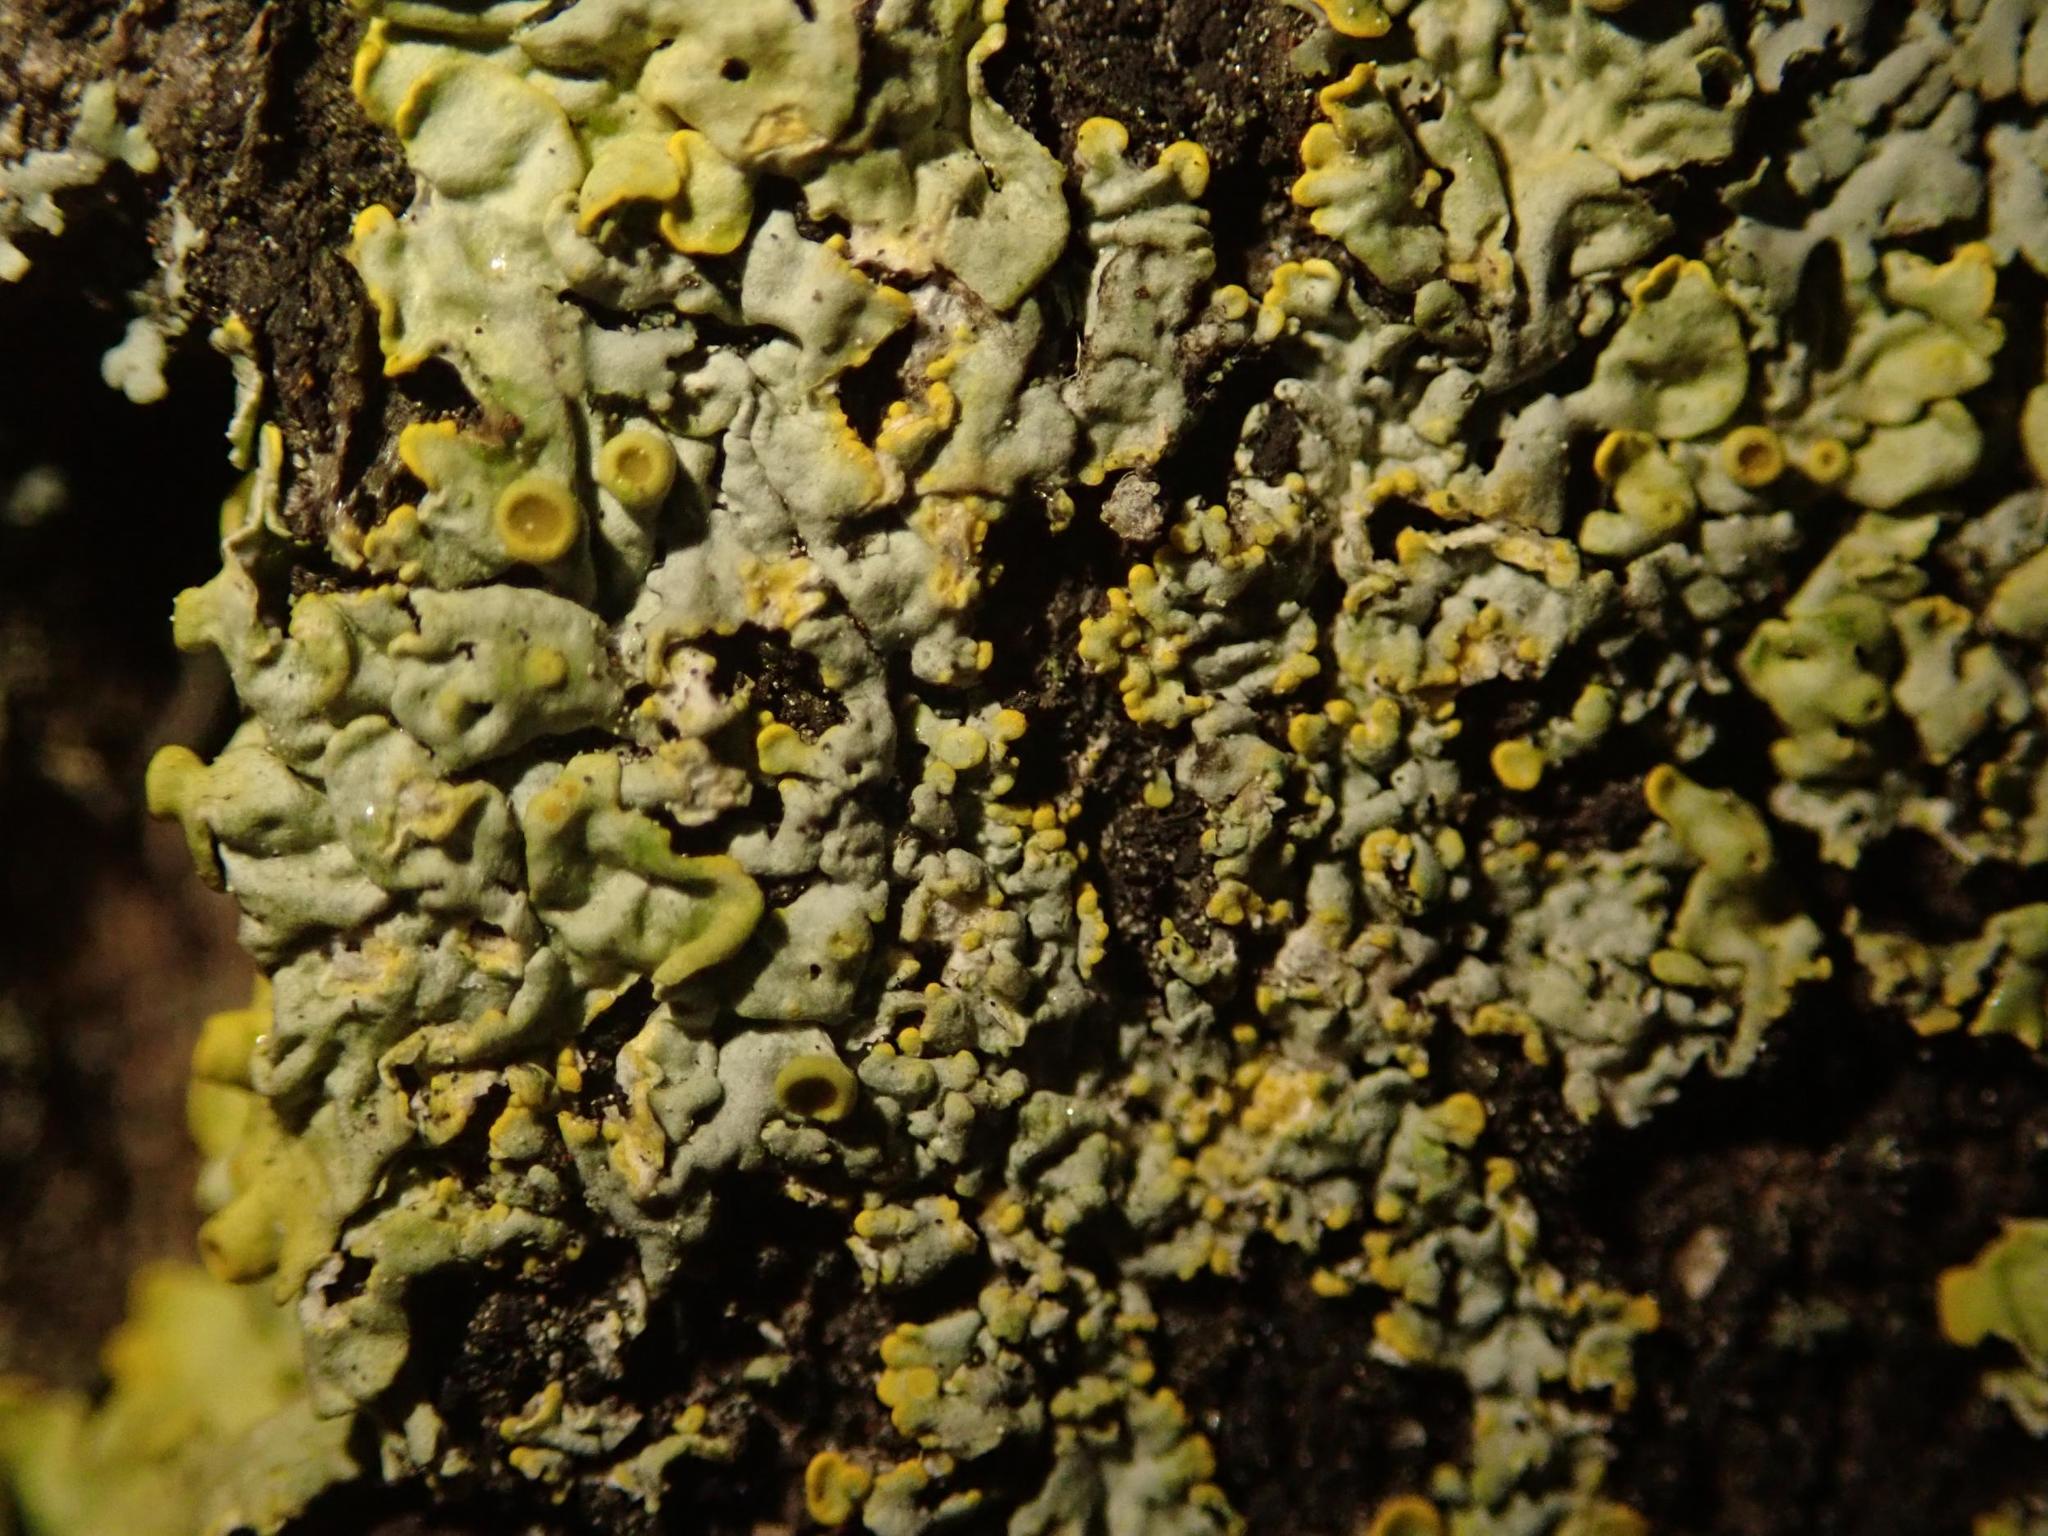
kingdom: Fungi
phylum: Ascomycota
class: Lecanoromycetes
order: Teloschistales
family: Teloschistaceae
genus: Xanthoria
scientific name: Xanthoria parietina
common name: Common orange lichen
